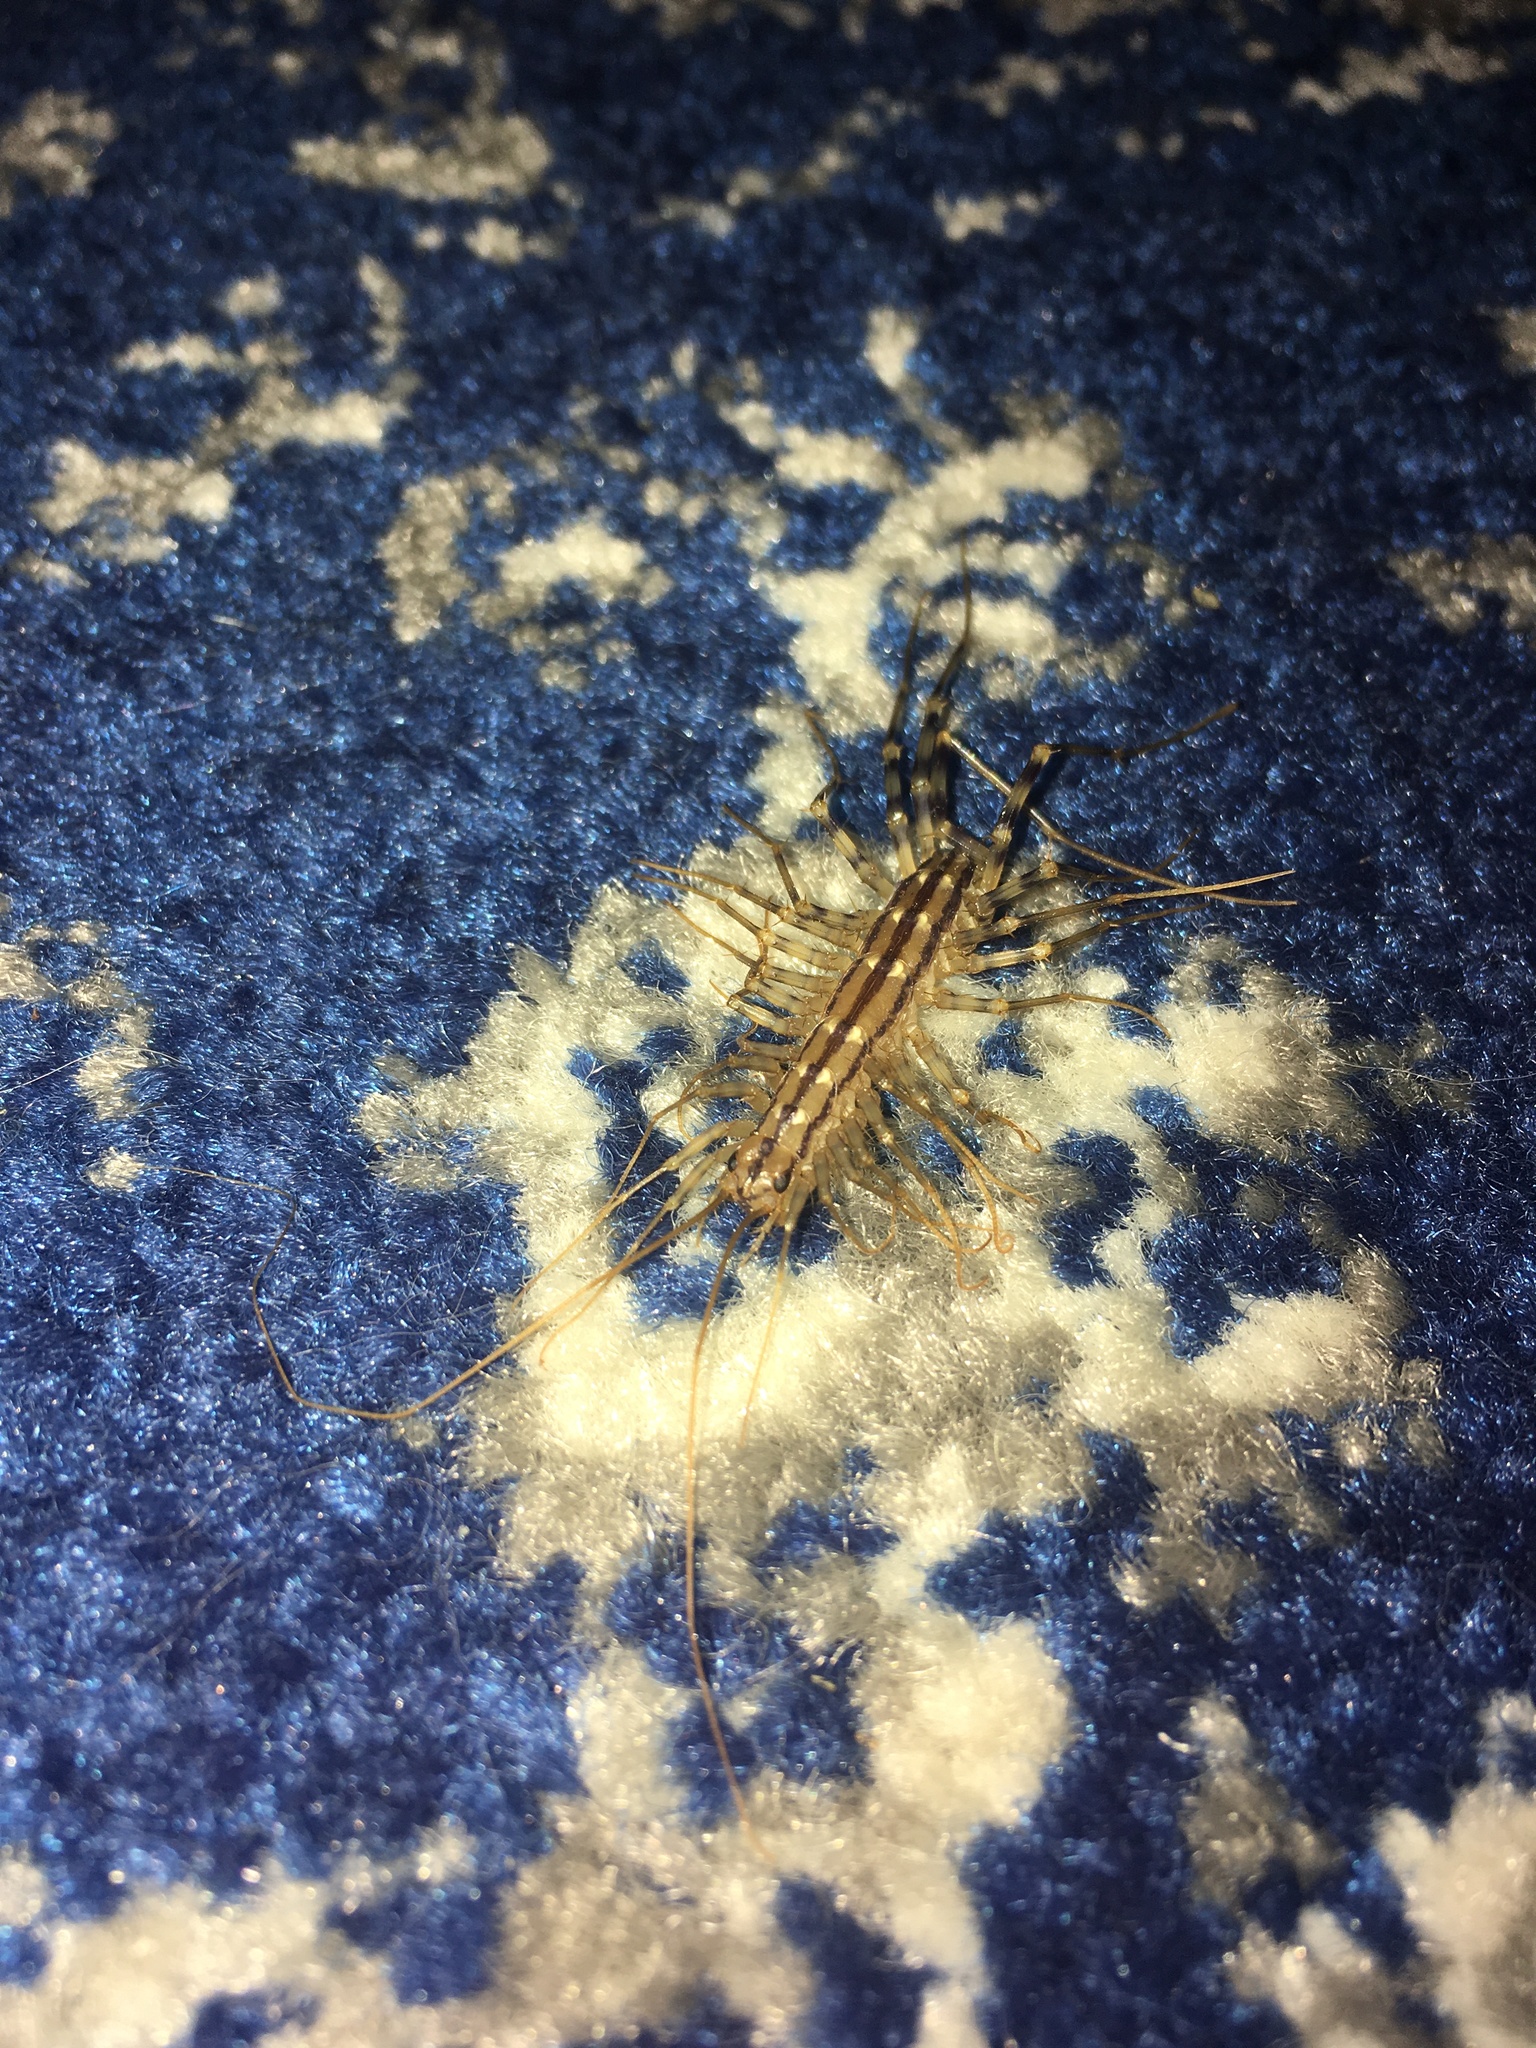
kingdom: Animalia
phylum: Arthropoda
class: Chilopoda
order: Scutigeromorpha
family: Scutigeridae
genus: Scutigera
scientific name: Scutigera coleoptrata
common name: House centipede
